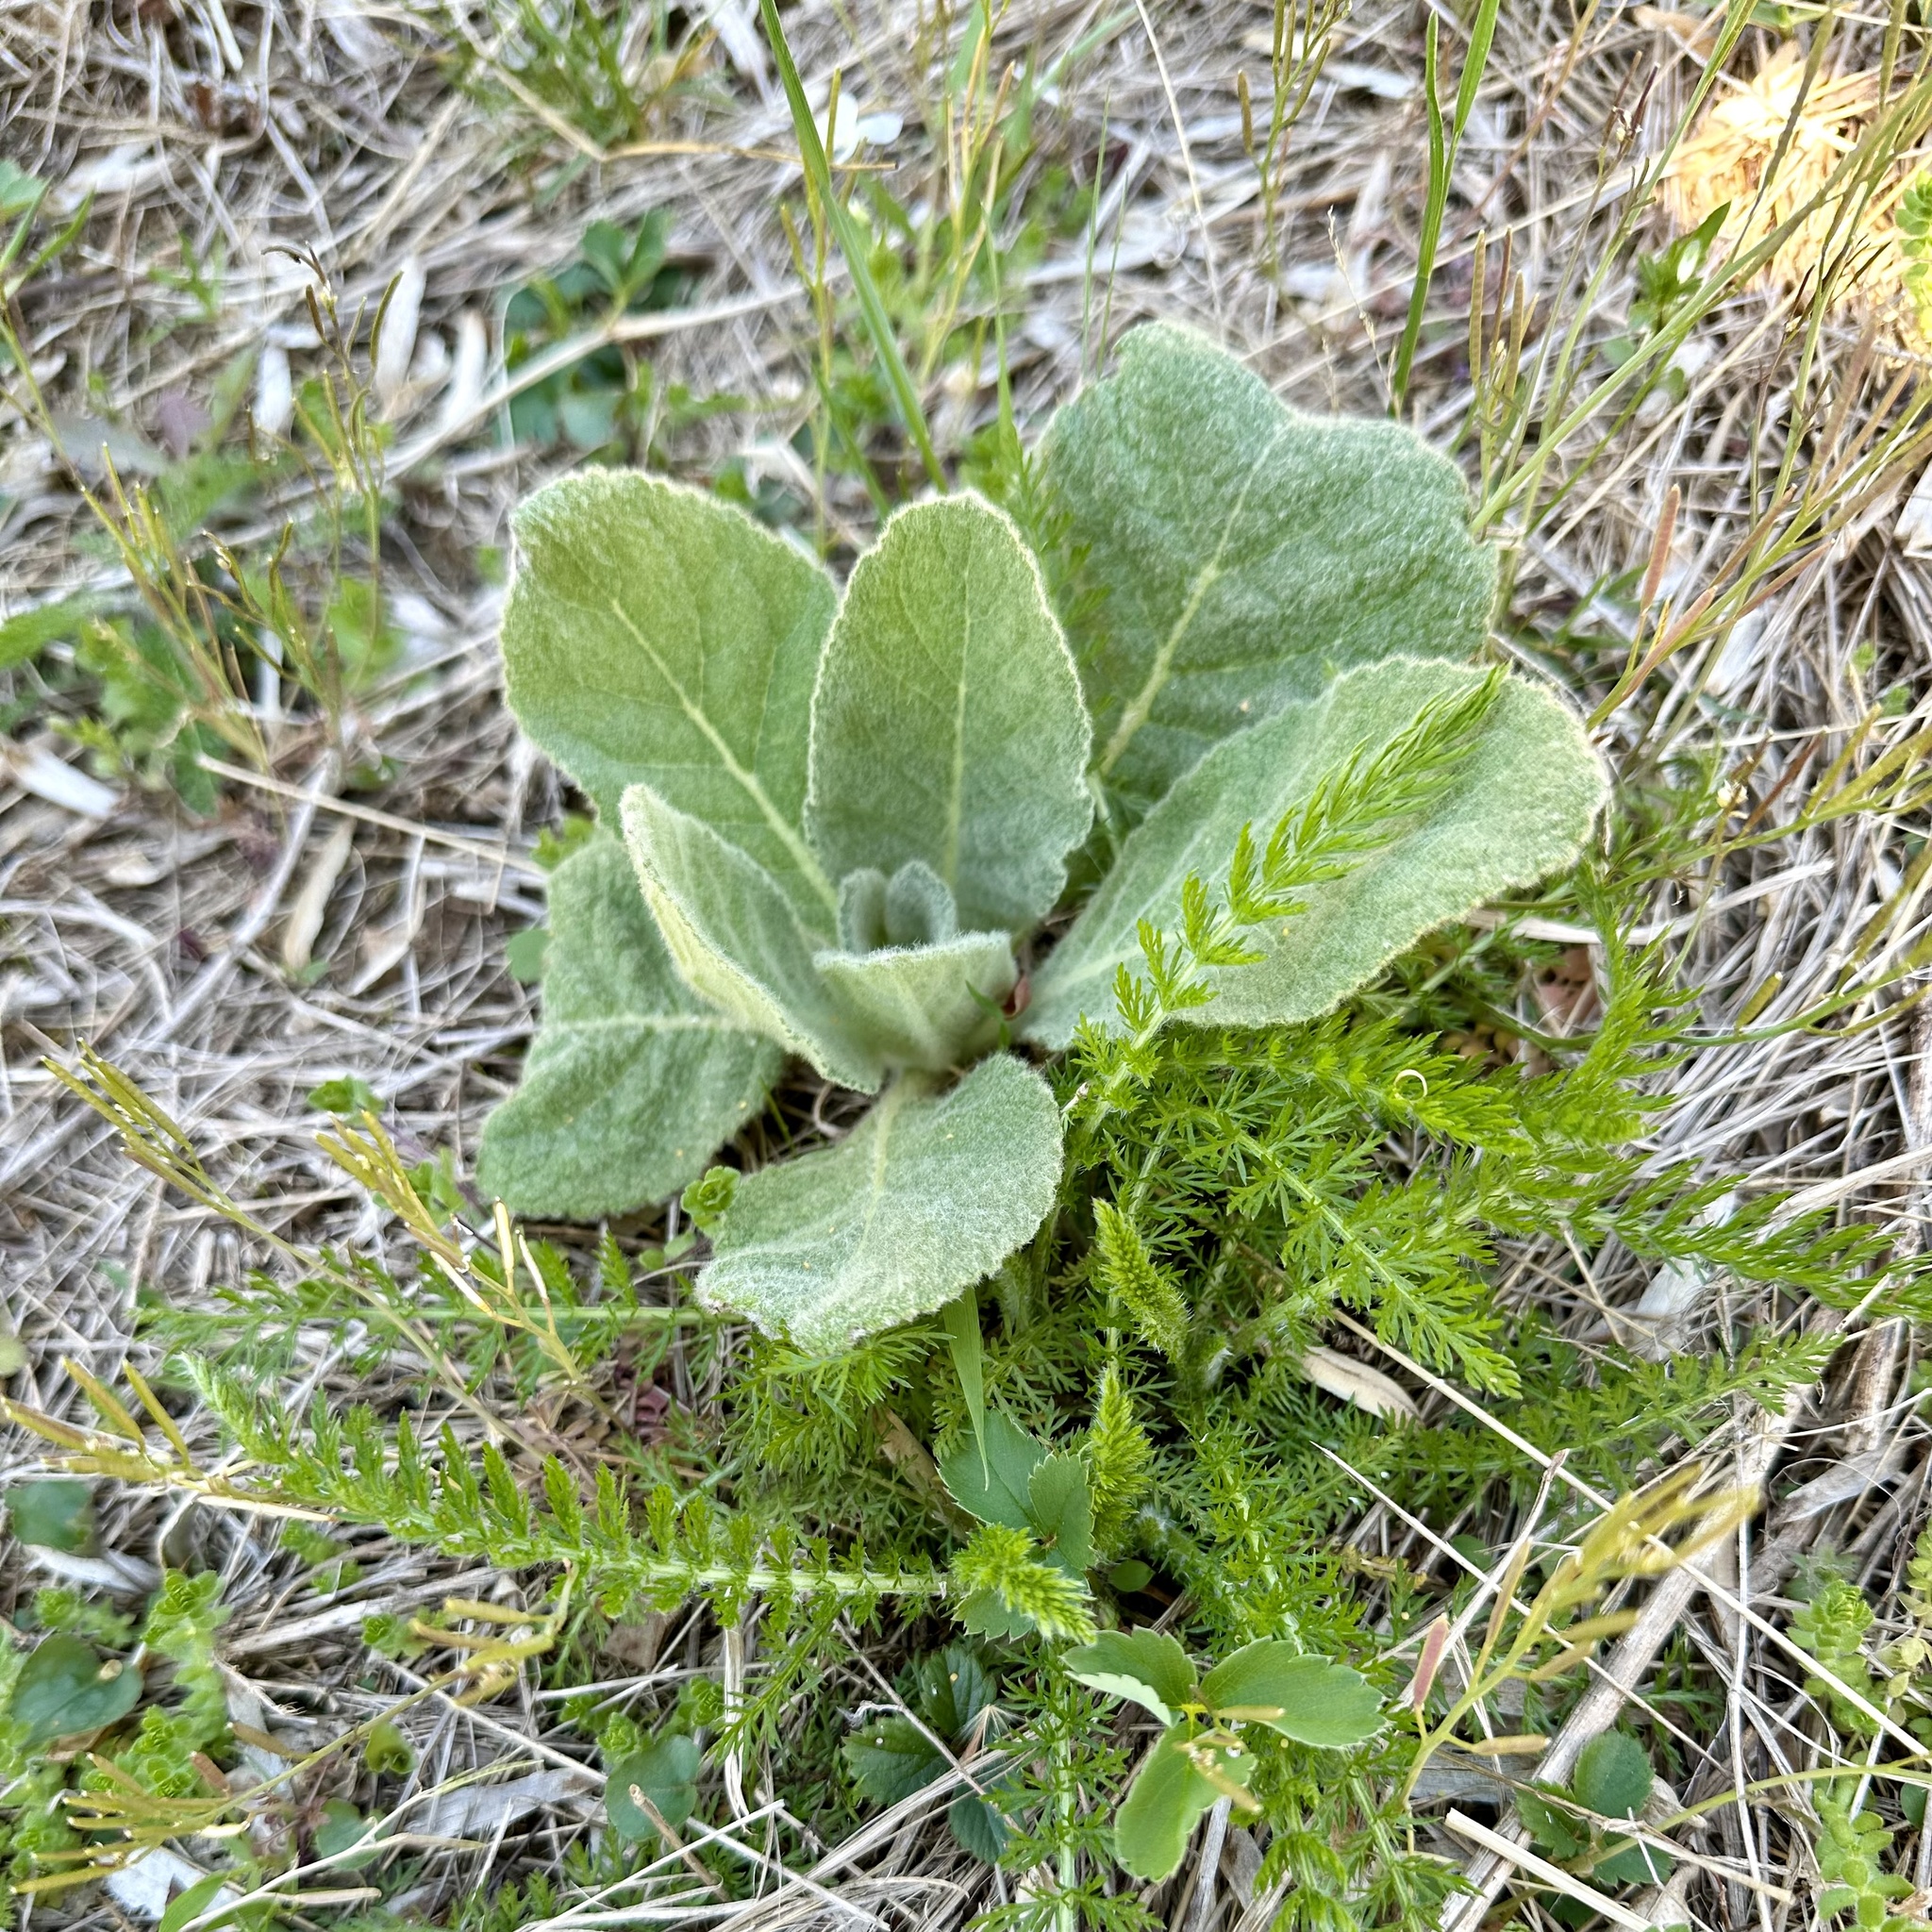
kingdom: Plantae
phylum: Tracheophyta
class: Magnoliopsida
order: Lamiales
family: Scrophulariaceae
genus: Verbascum
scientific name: Verbascum thapsus
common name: Common mullein
